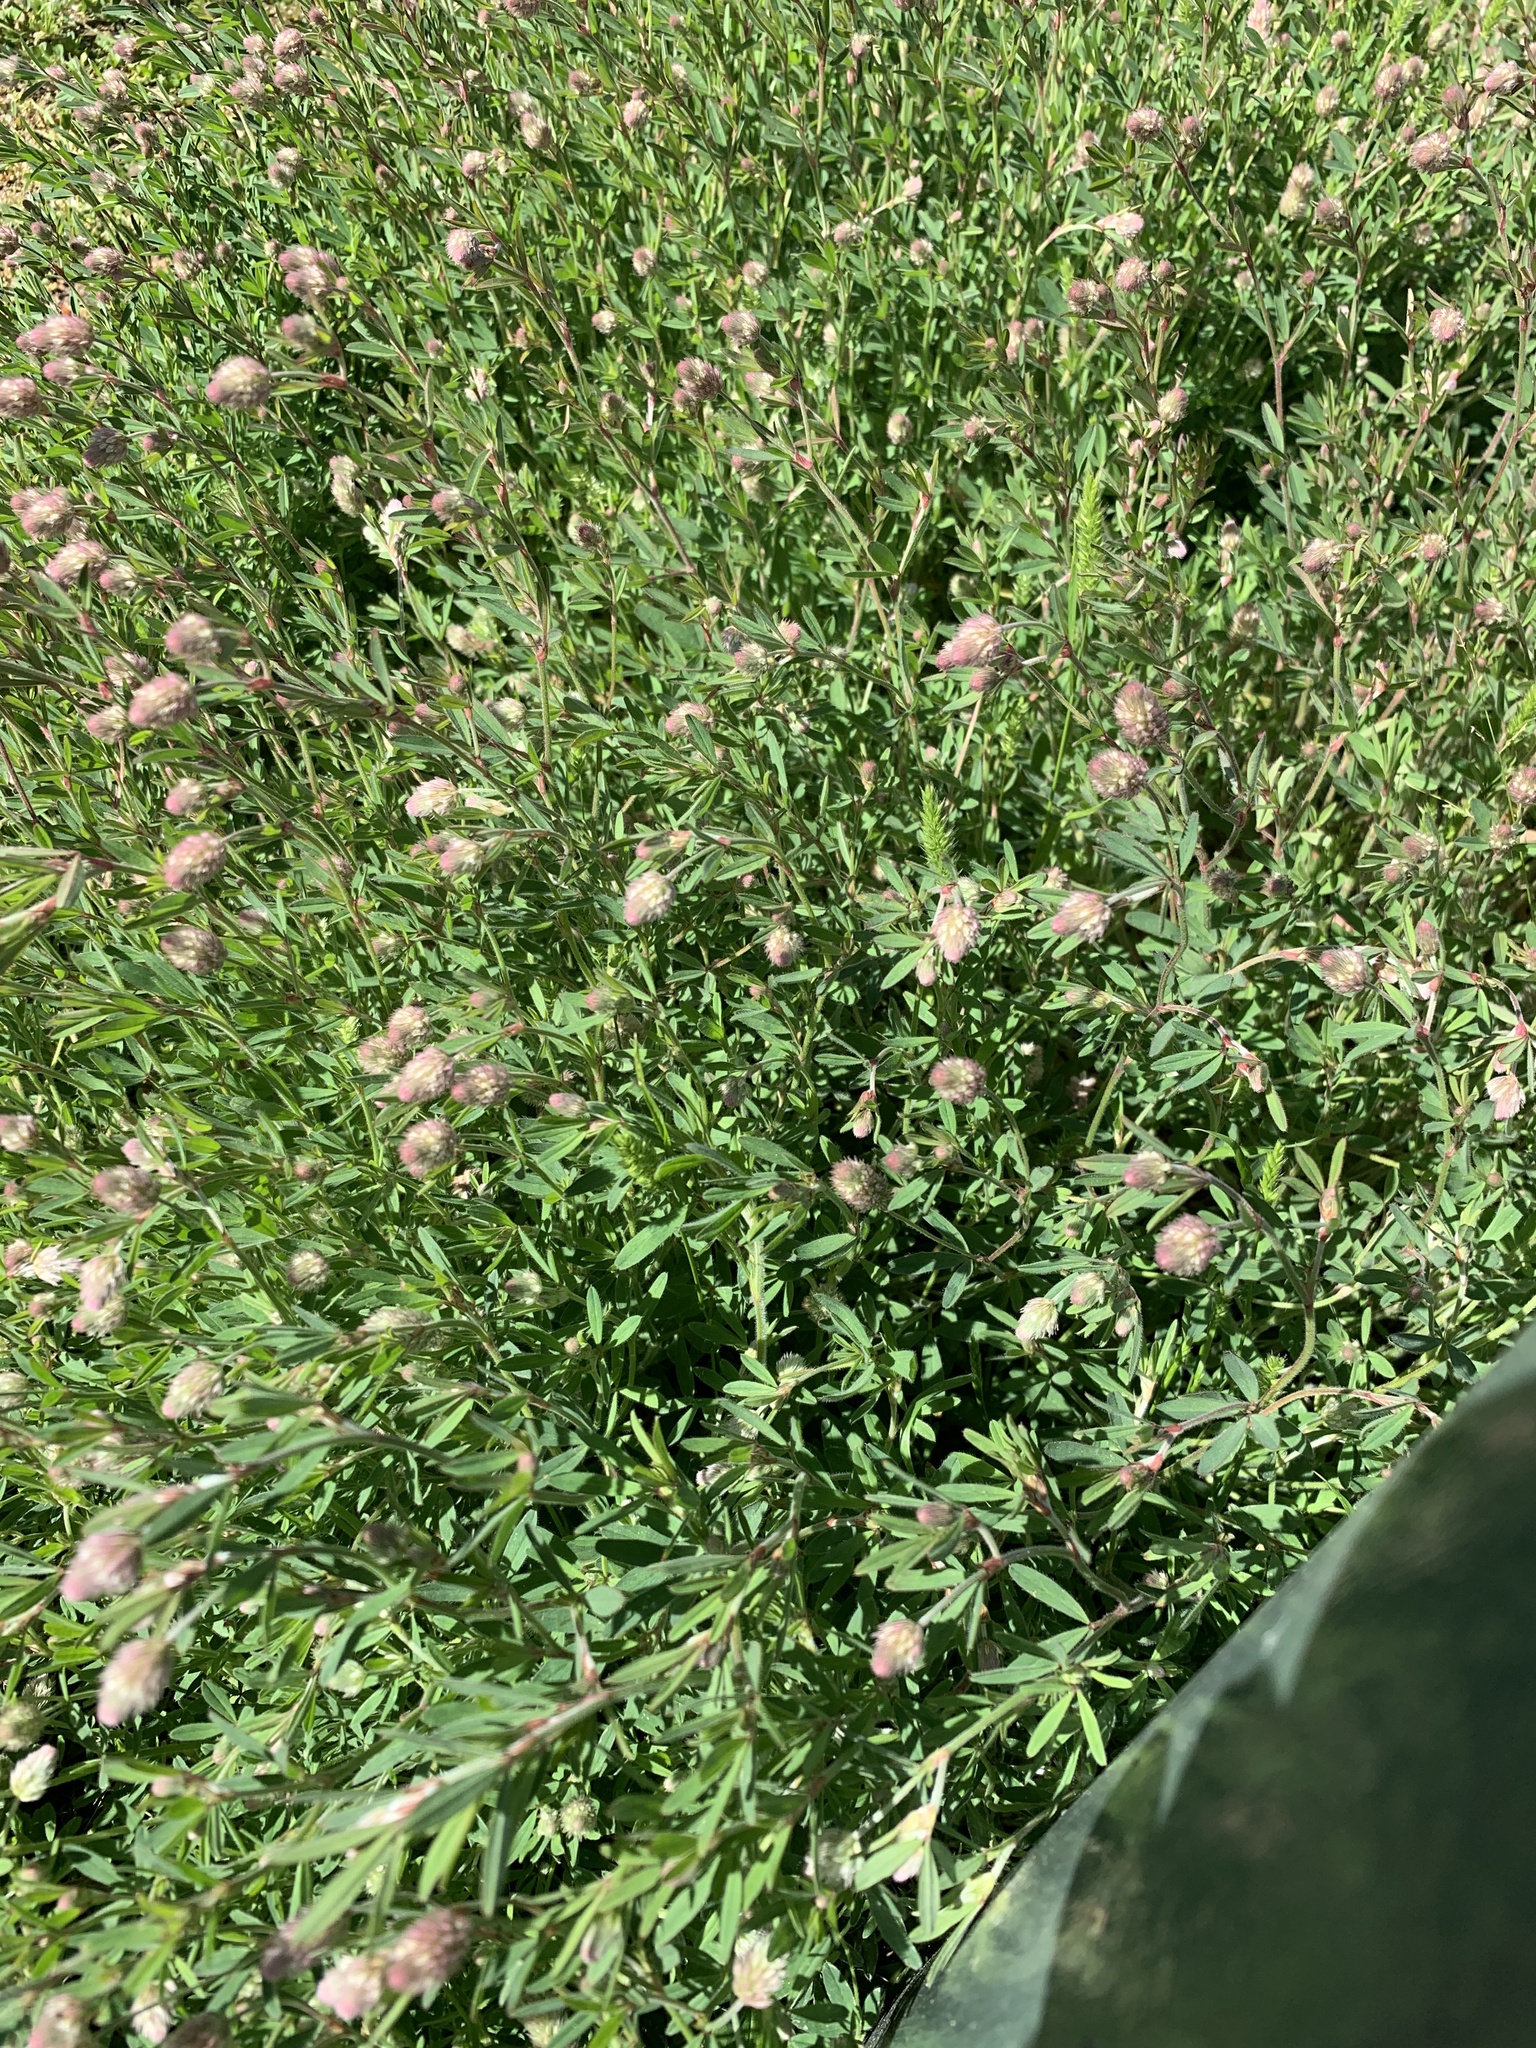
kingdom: Plantae
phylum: Tracheophyta
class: Magnoliopsida
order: Fabales
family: Fabaceae
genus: Trifolium
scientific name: Trifolium arvense
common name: Hare's-foot clover
